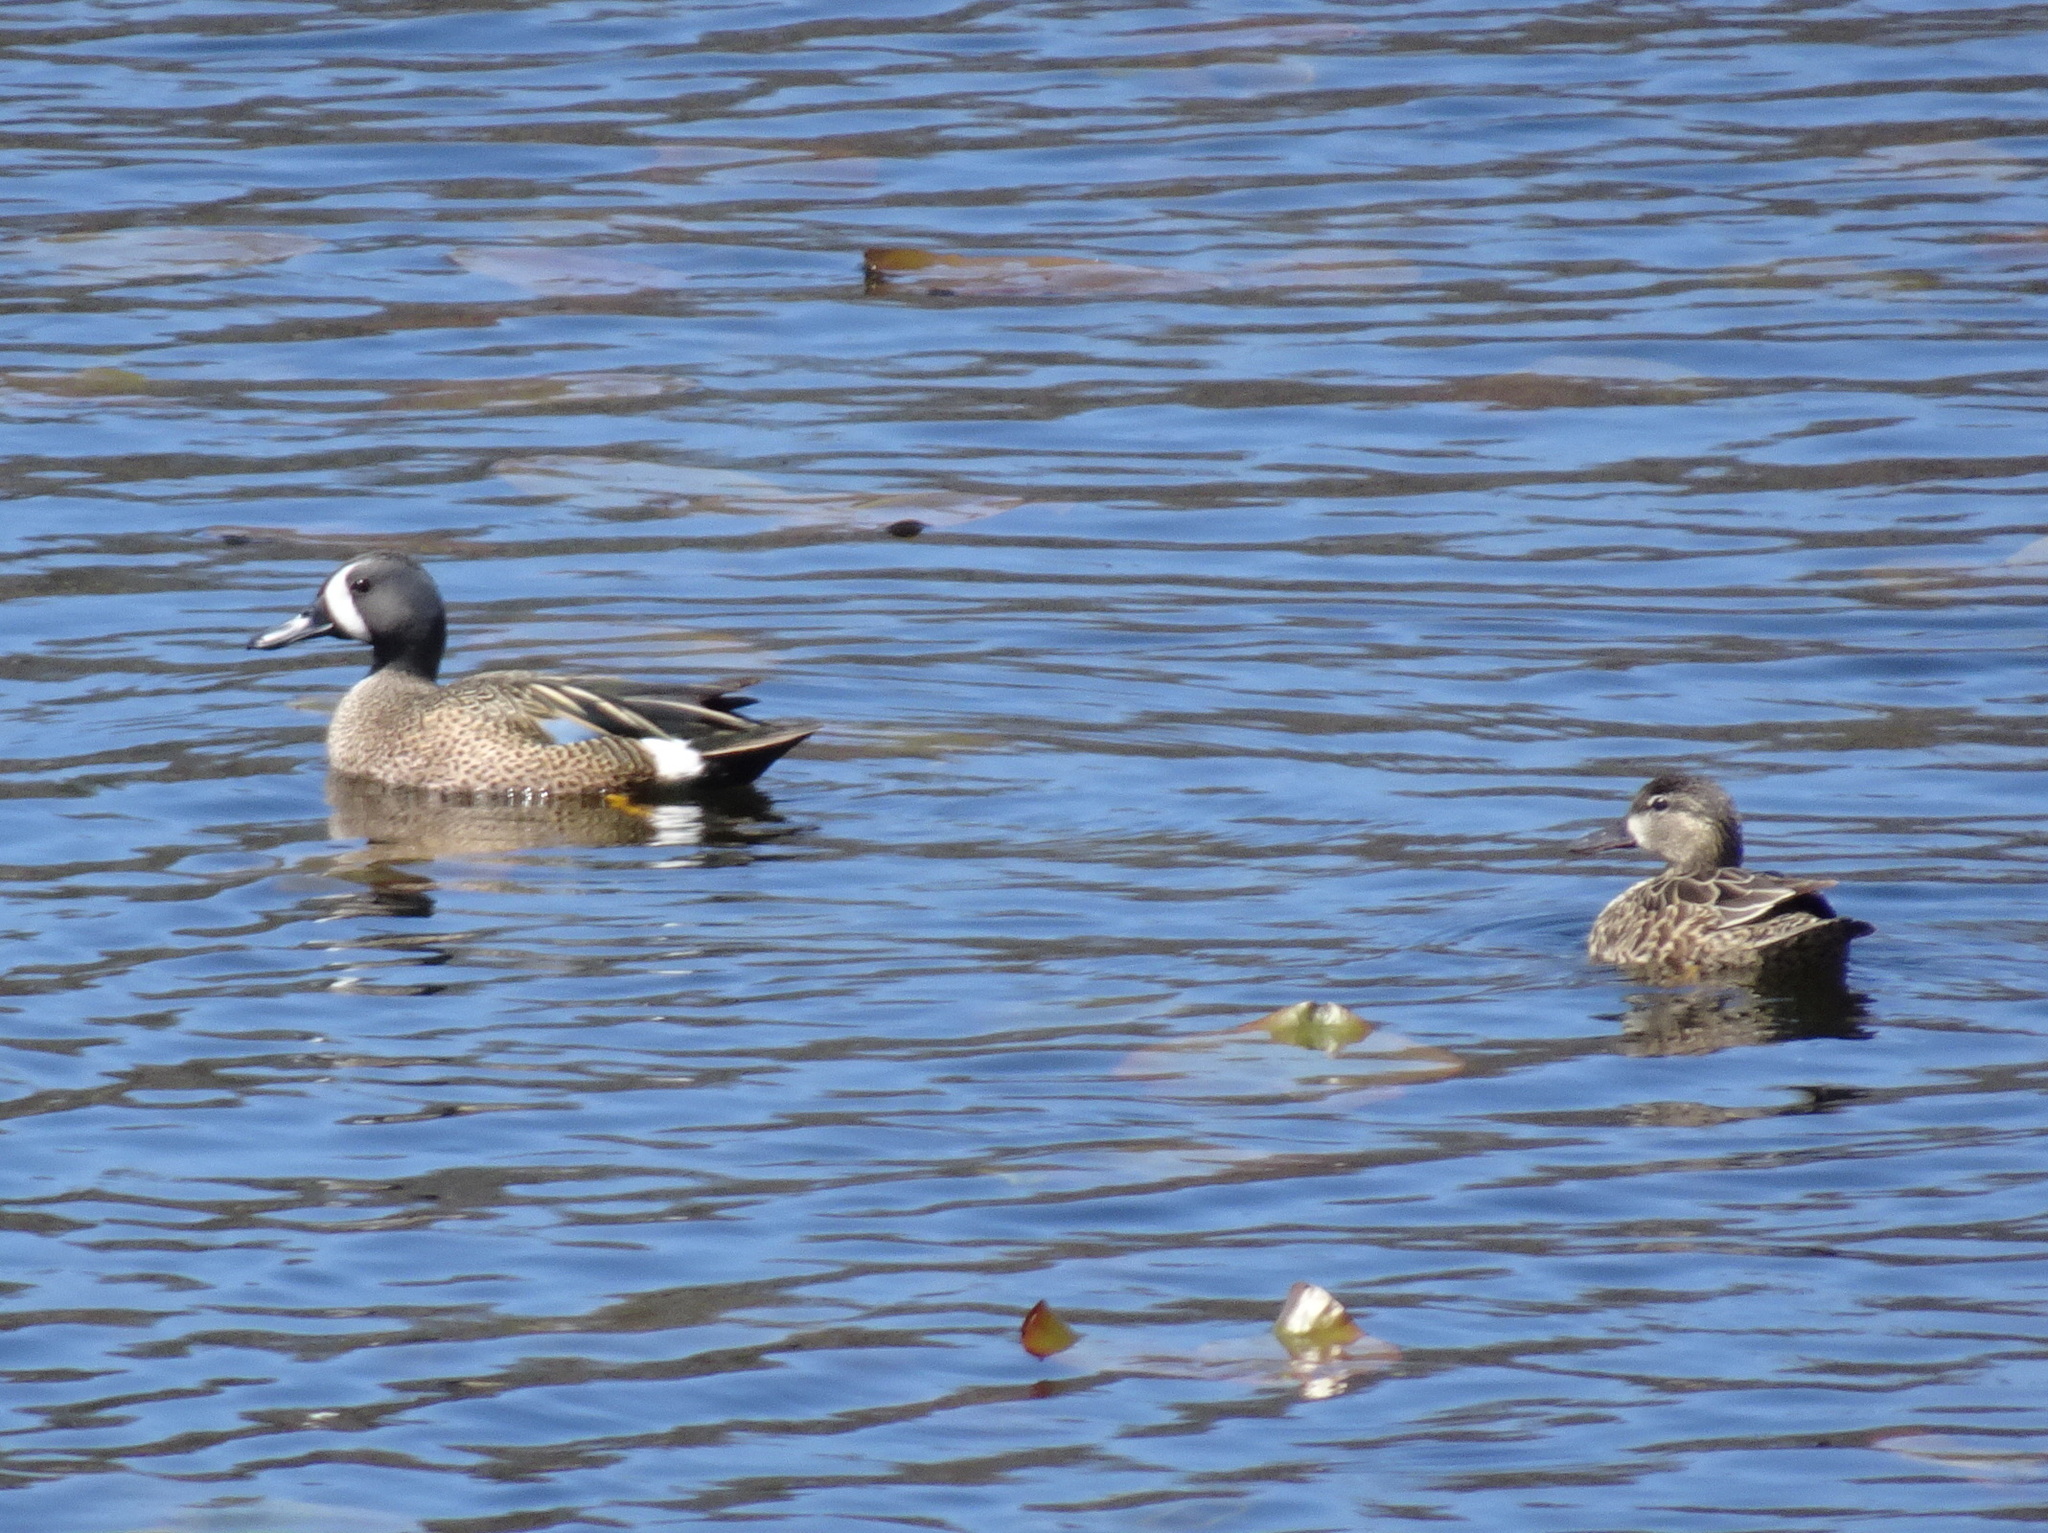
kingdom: Animalia
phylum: Chordata
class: Aves
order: Anseriformes
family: Anatidae
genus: Spatula
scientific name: Spatula discors
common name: Blue-winged teal
